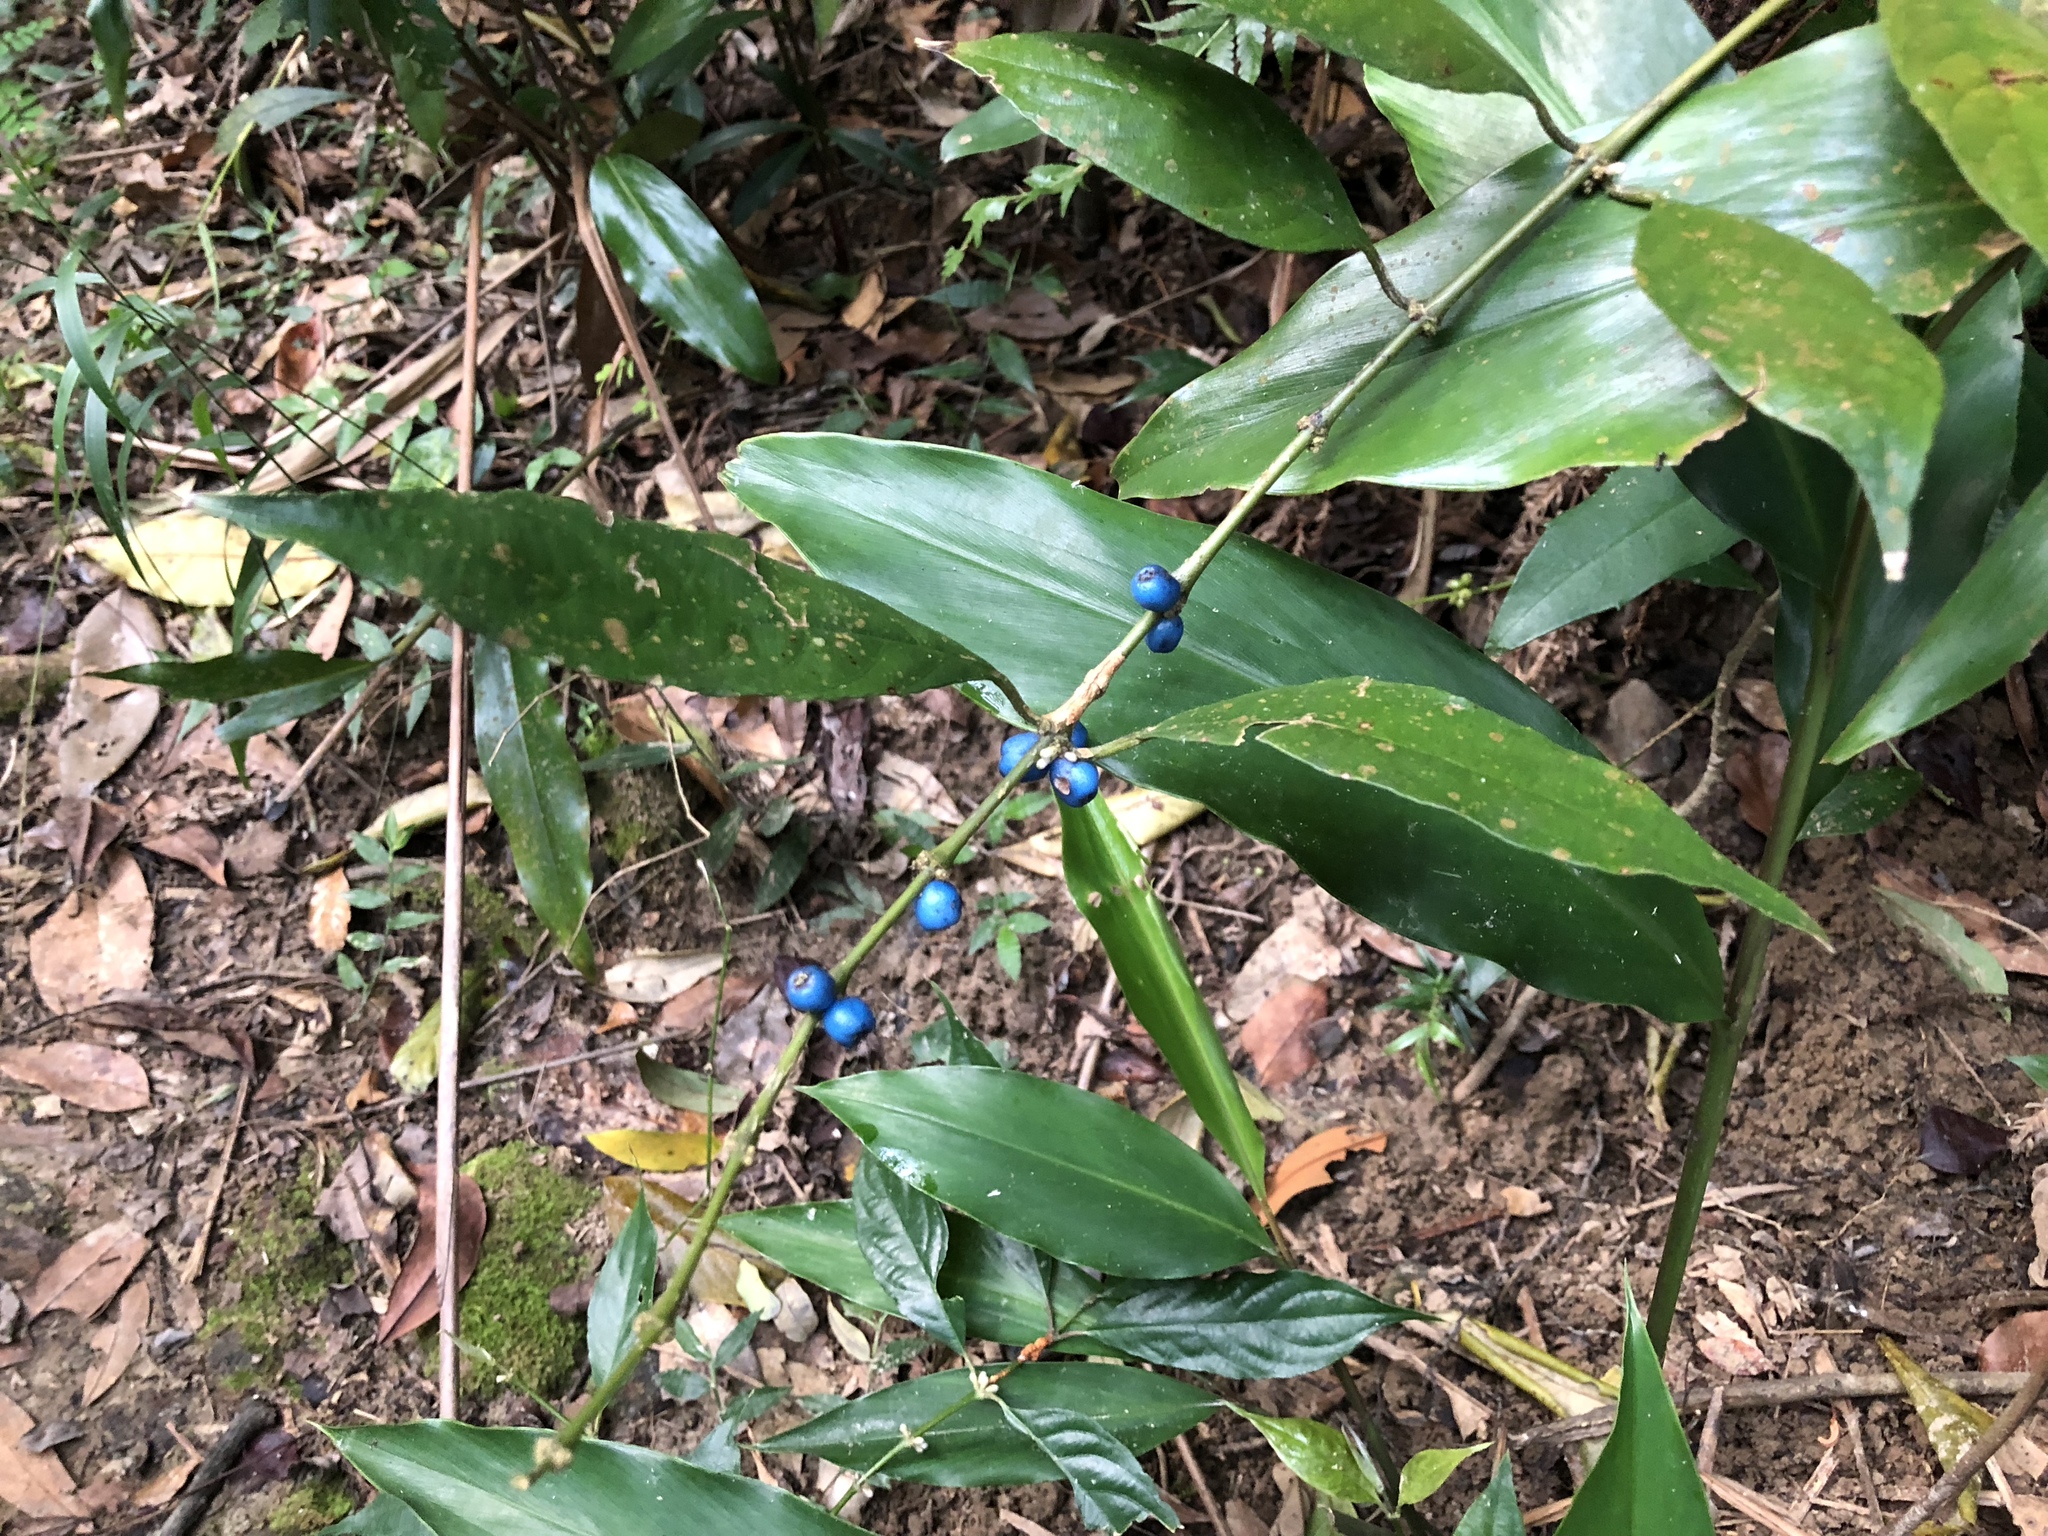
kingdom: Plantae
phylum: Tracheophyta
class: Magnoliopsida
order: Gentianales
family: Rubiaceae
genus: Lasianthus
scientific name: Lasianthus fordii
